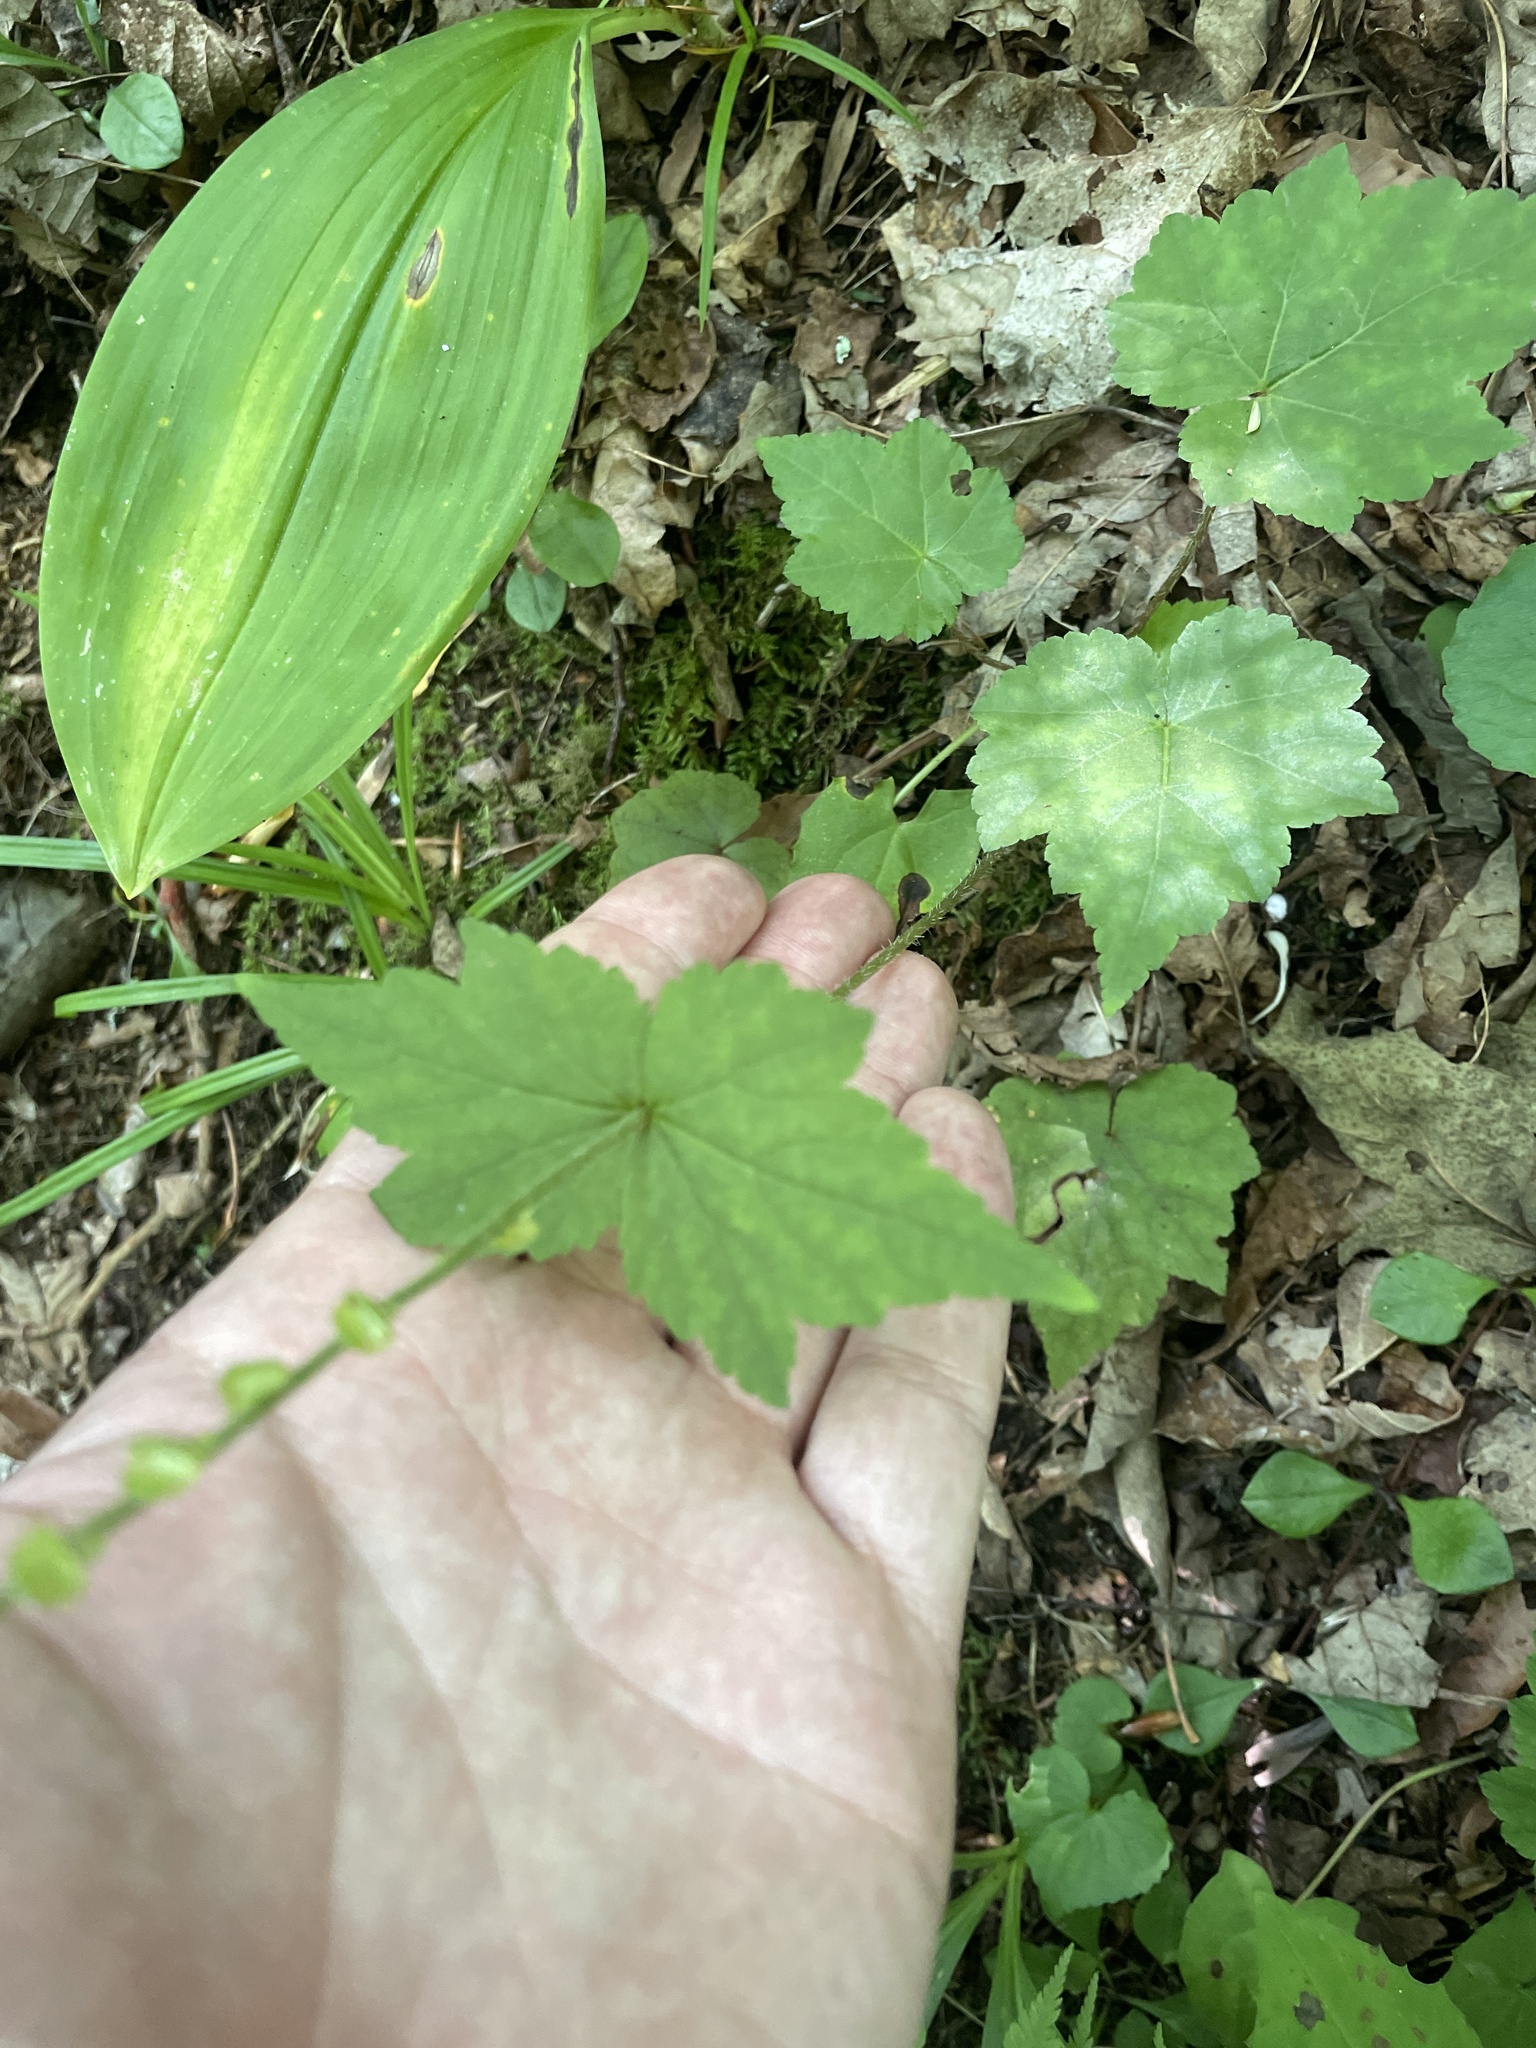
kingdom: Plantae
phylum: Tracheophyta
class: Magnoliopsida
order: Saxifragales
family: Saxifragaceae
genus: Mitella
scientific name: Mitella diphylla
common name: Coolwort
